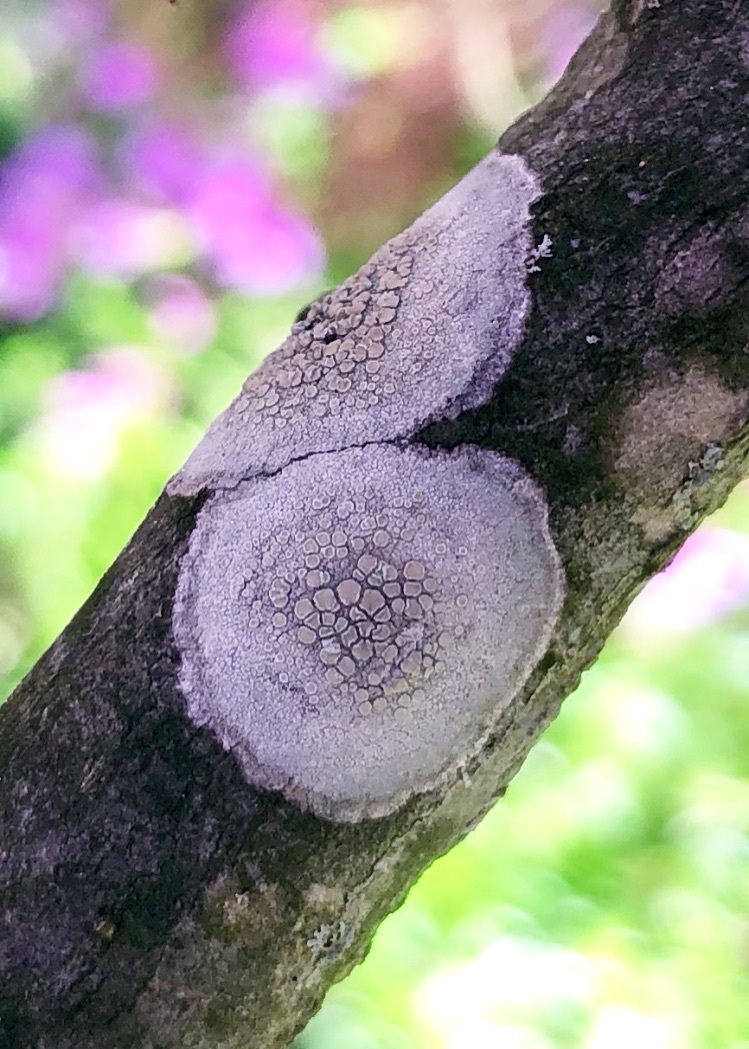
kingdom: Fungi
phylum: Ascomycota
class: Lecanoromycetes
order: Lecanorales
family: Lecanoraceae
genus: Lecanora
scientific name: Lecanora caesiorubella
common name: Frosted rim-lichen
